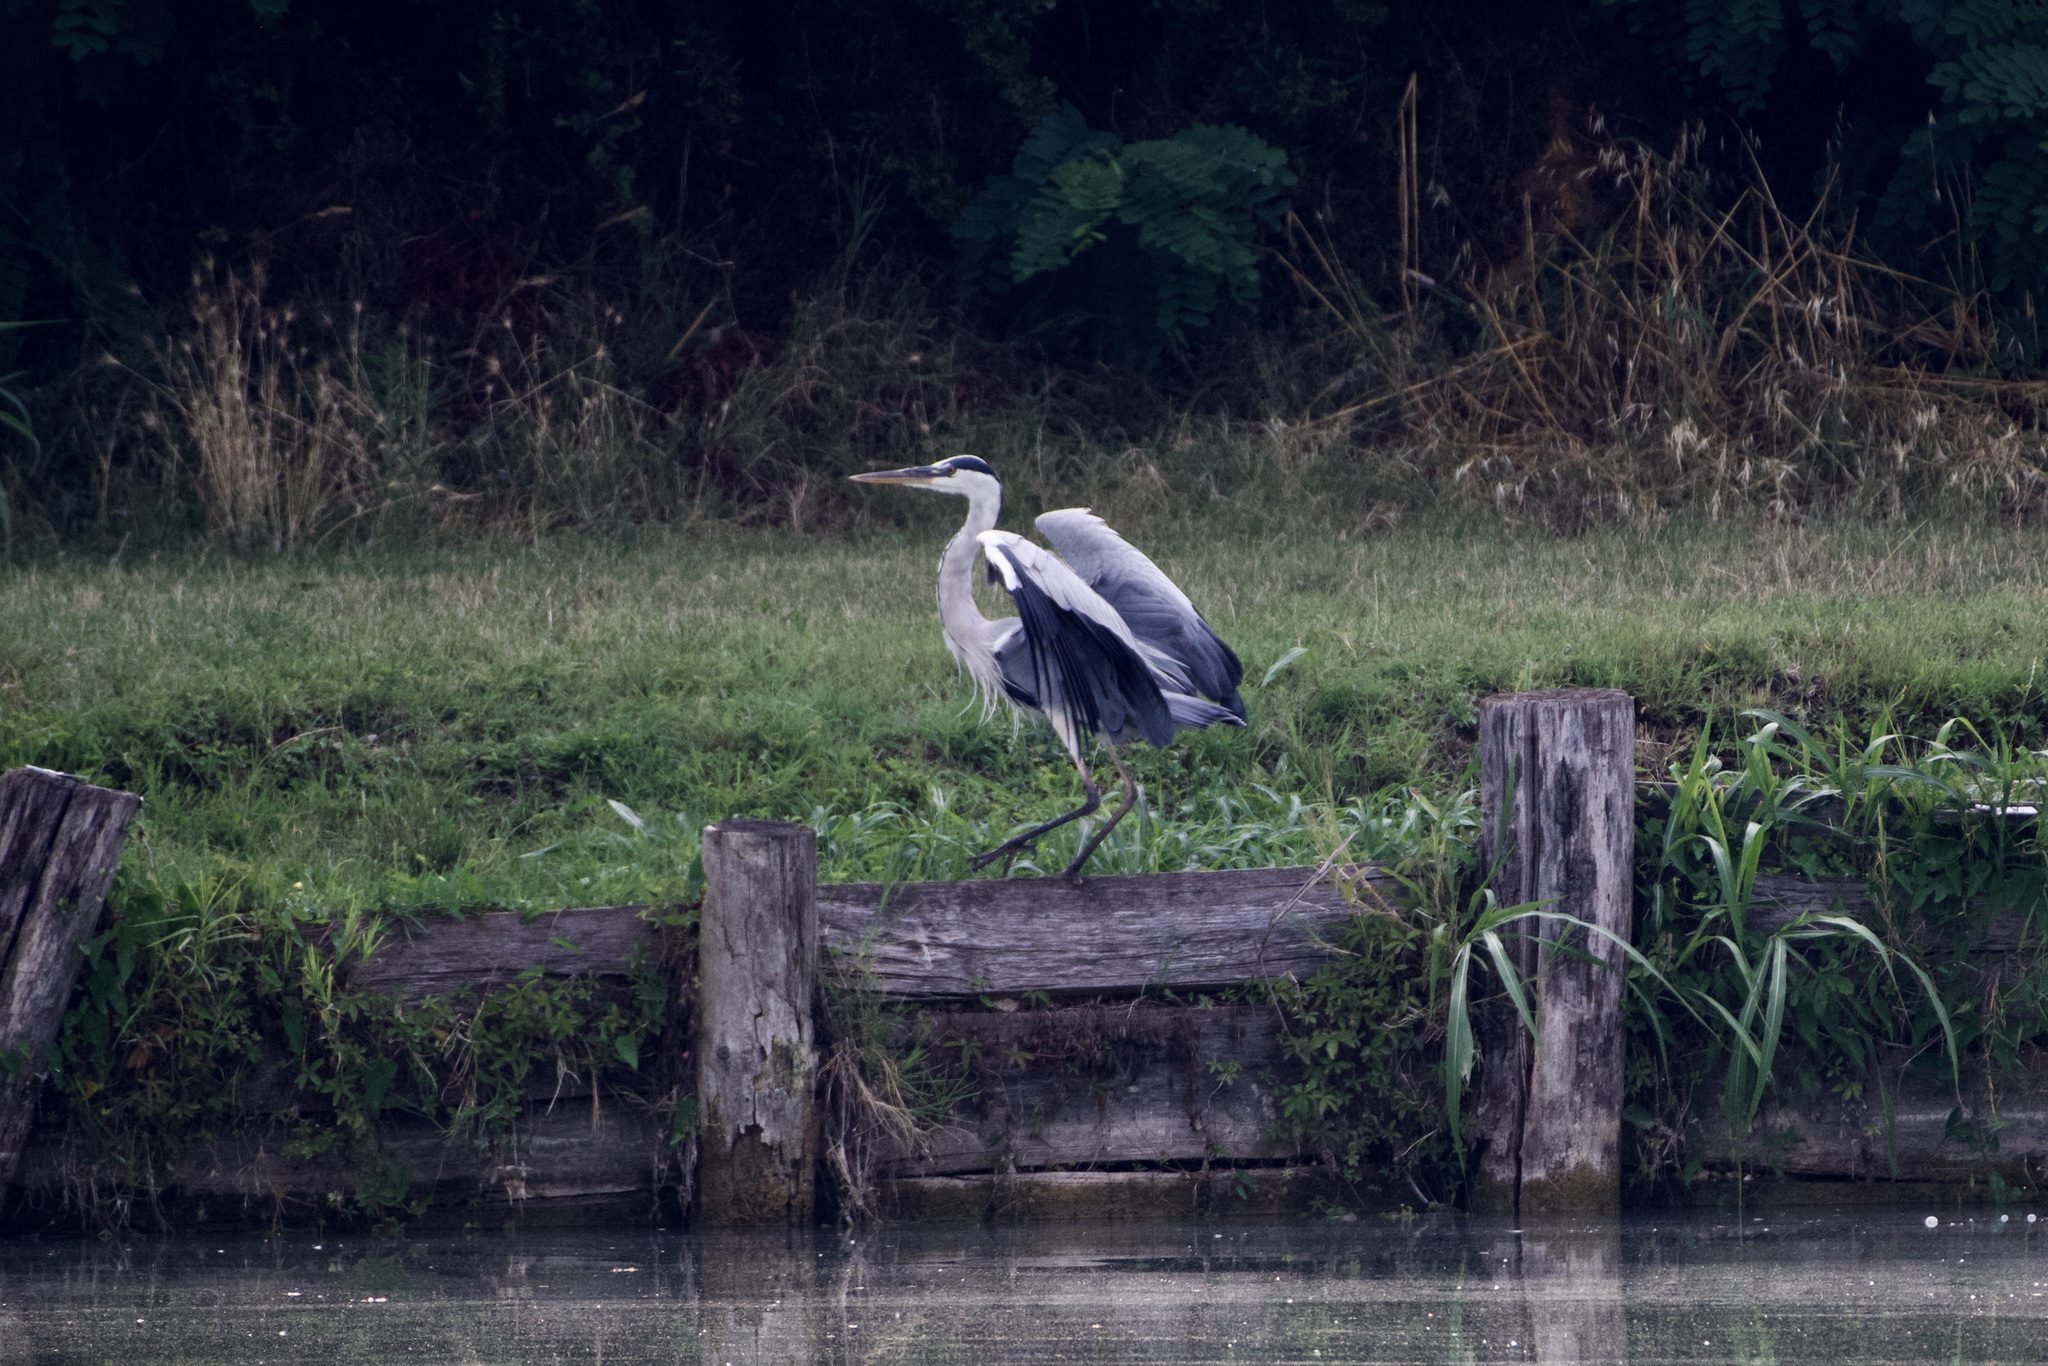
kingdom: Animalia
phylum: Chordata
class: Aves
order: Pelecaniformes
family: Ardeidae
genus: Ardea
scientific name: Ardea cinerea
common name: Grey heron
